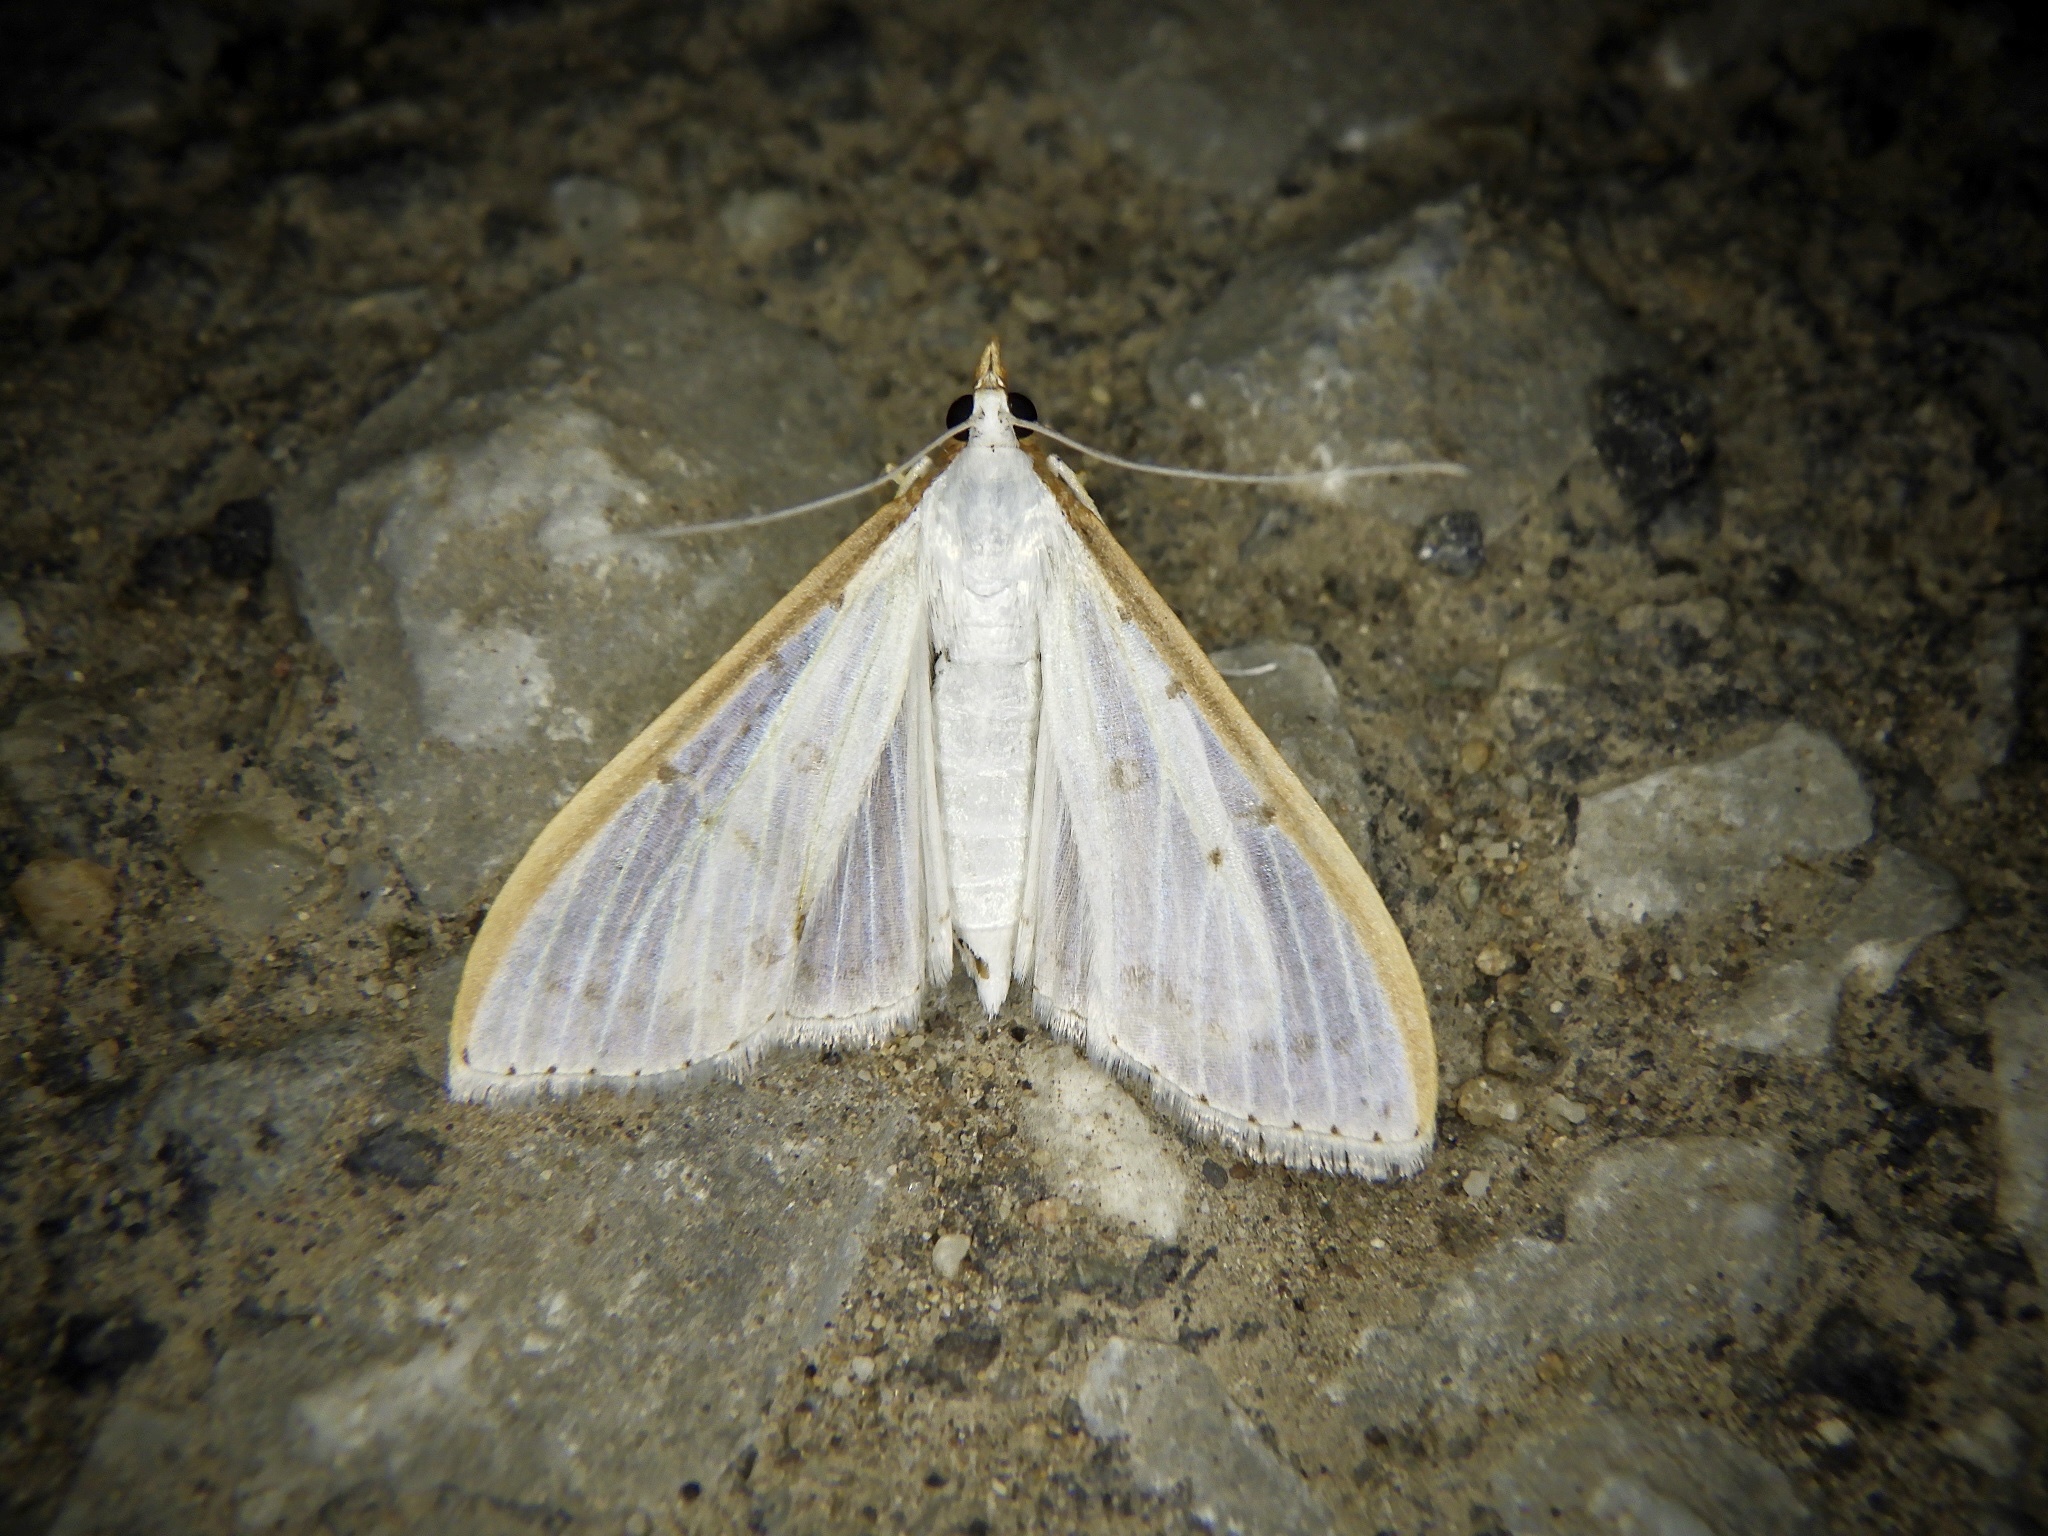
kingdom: Animalia
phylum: Arthropoda
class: Insecta
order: Lepidoptera
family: Crambidae
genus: Palpita
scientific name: Palpita nigropunctalis
